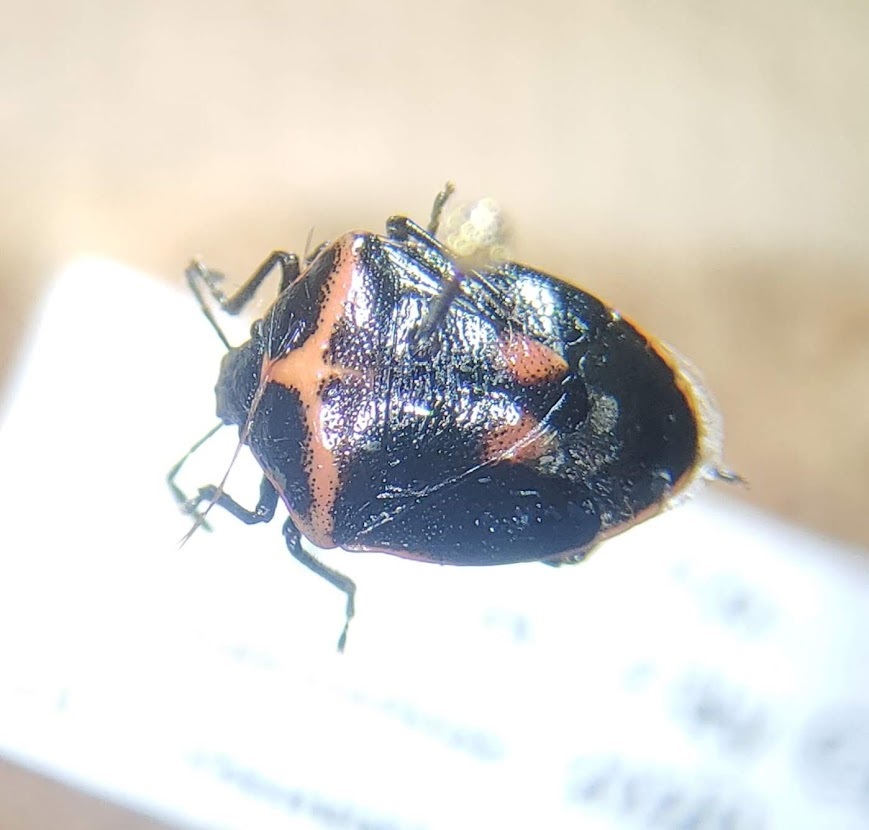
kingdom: Animalia
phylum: Arthropoda
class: Insecta
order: Hemiptera
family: Pentatomidae
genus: Cosmopepla
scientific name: Cosmopepla lintneriana
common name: Twice-stabbed stink bug
